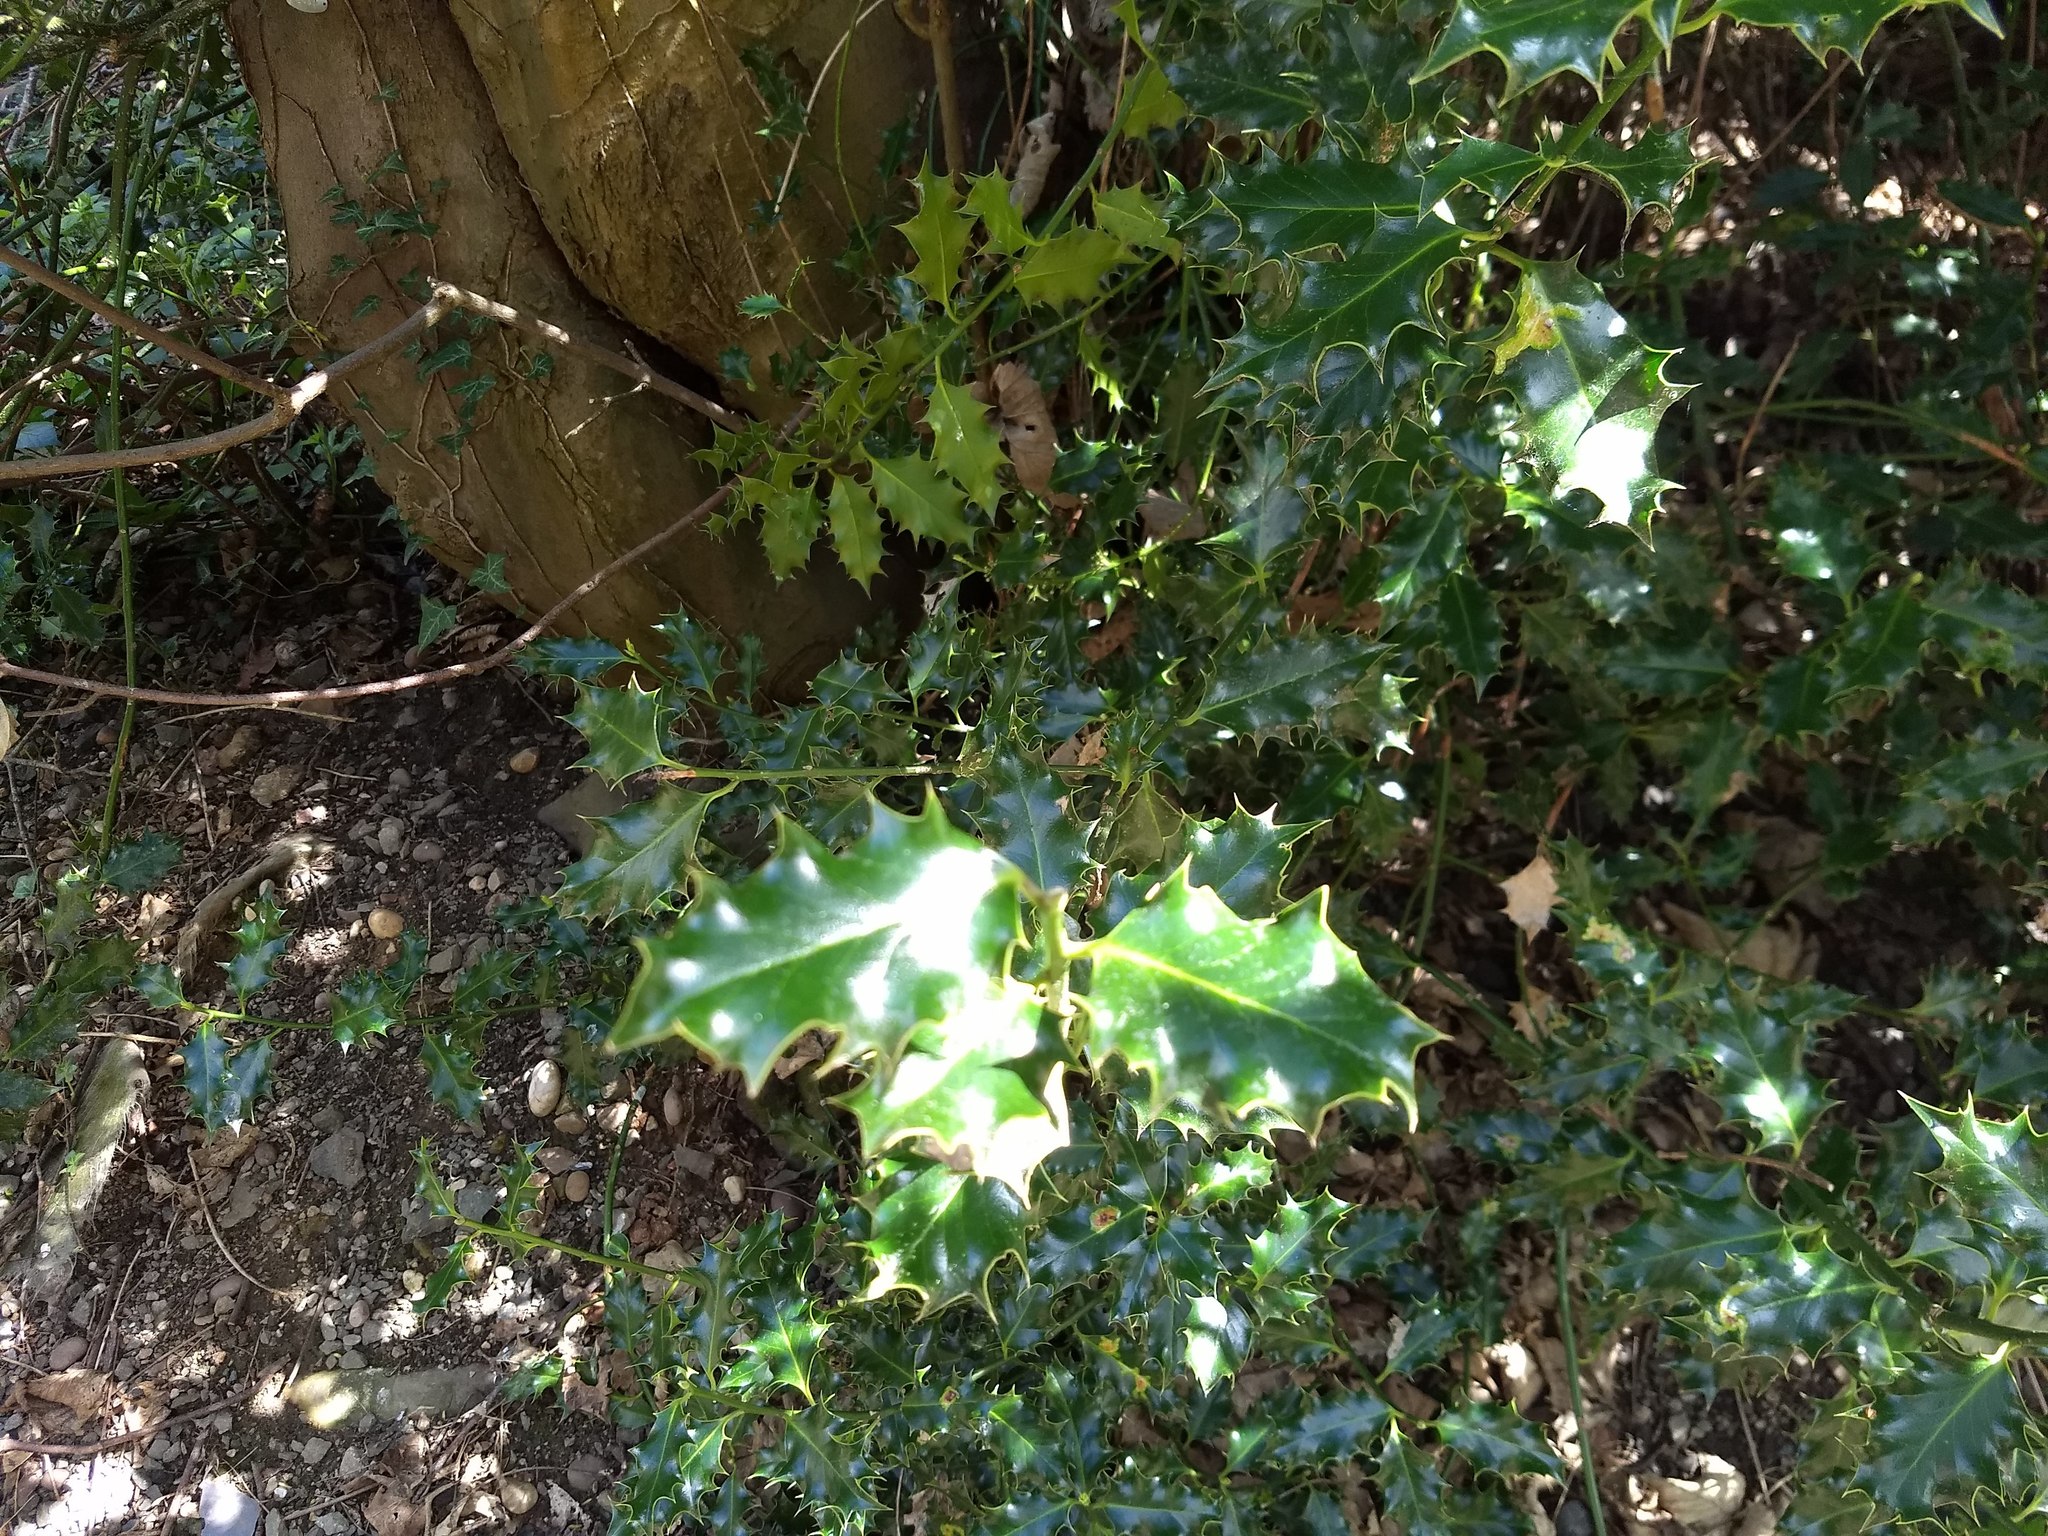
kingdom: Plantae
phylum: Tracheophyta
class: Magnoliopsida
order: Aquifoliales
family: Aquifoliaceae
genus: Ilex
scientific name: Ilex aquifolium
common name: English holly
